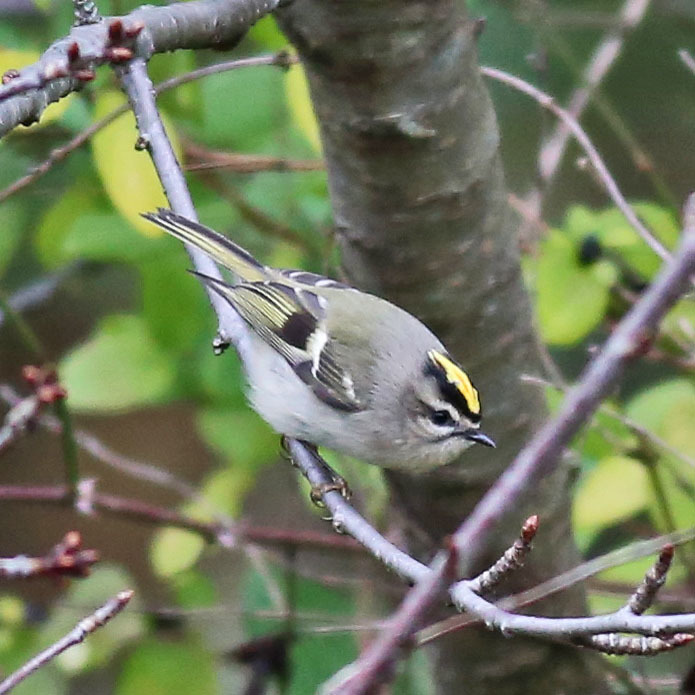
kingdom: Animalia
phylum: Chordata
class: Aves
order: Passeriformes
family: Regulidae
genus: Regulus
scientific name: Regulus satrapa
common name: Golden-crowned kinglet
